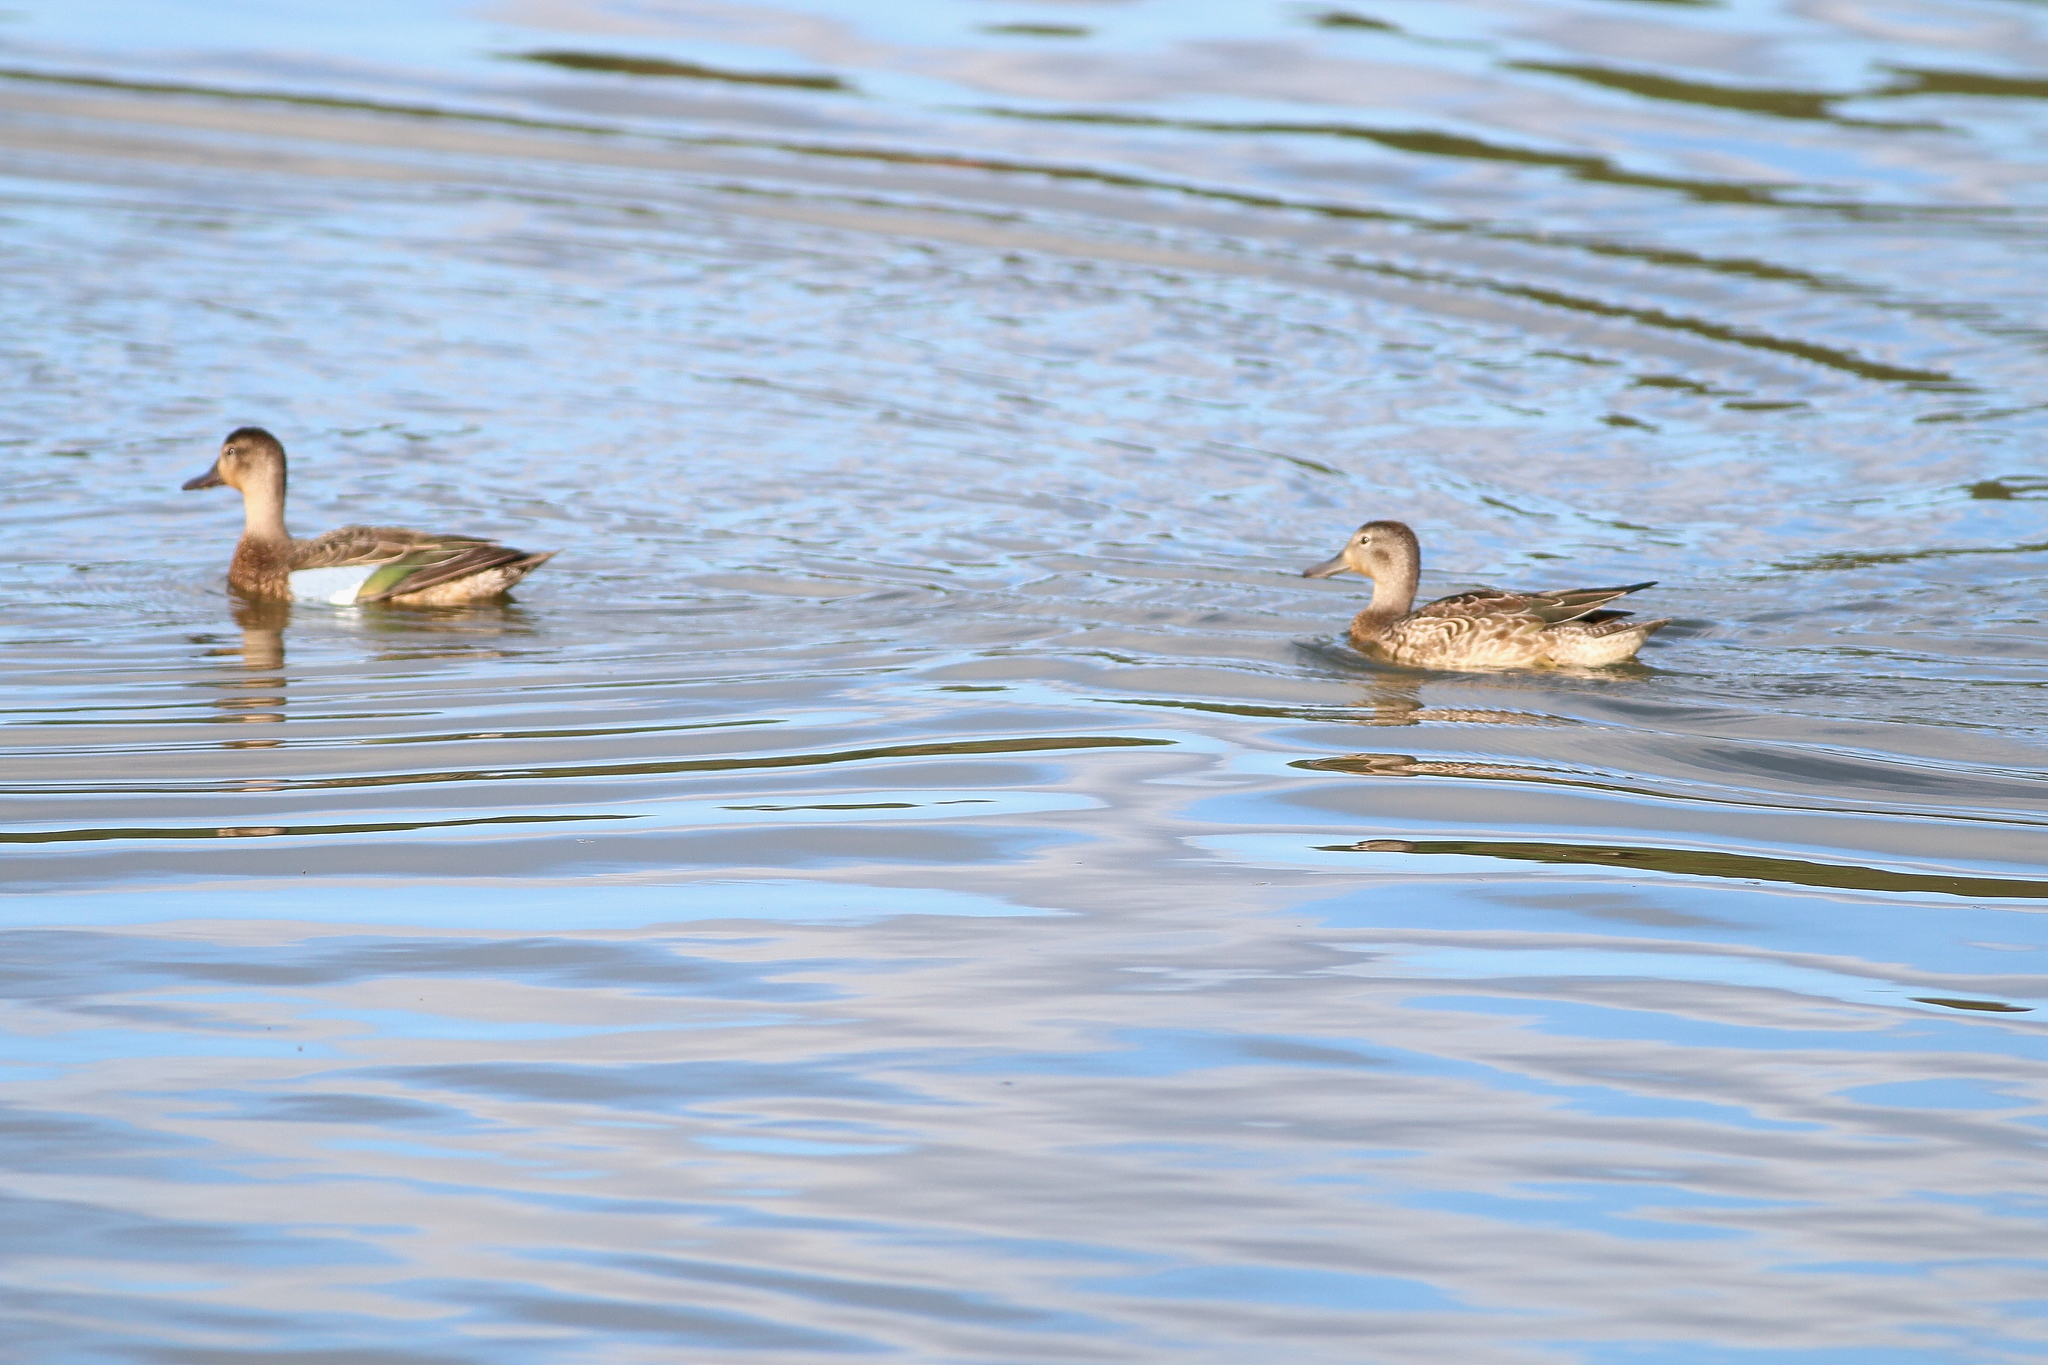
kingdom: Animalia
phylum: Chordata
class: Aves
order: Anseriformes
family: Anatidae
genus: Spatula
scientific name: Spatula discors
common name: Blue-winged teal
